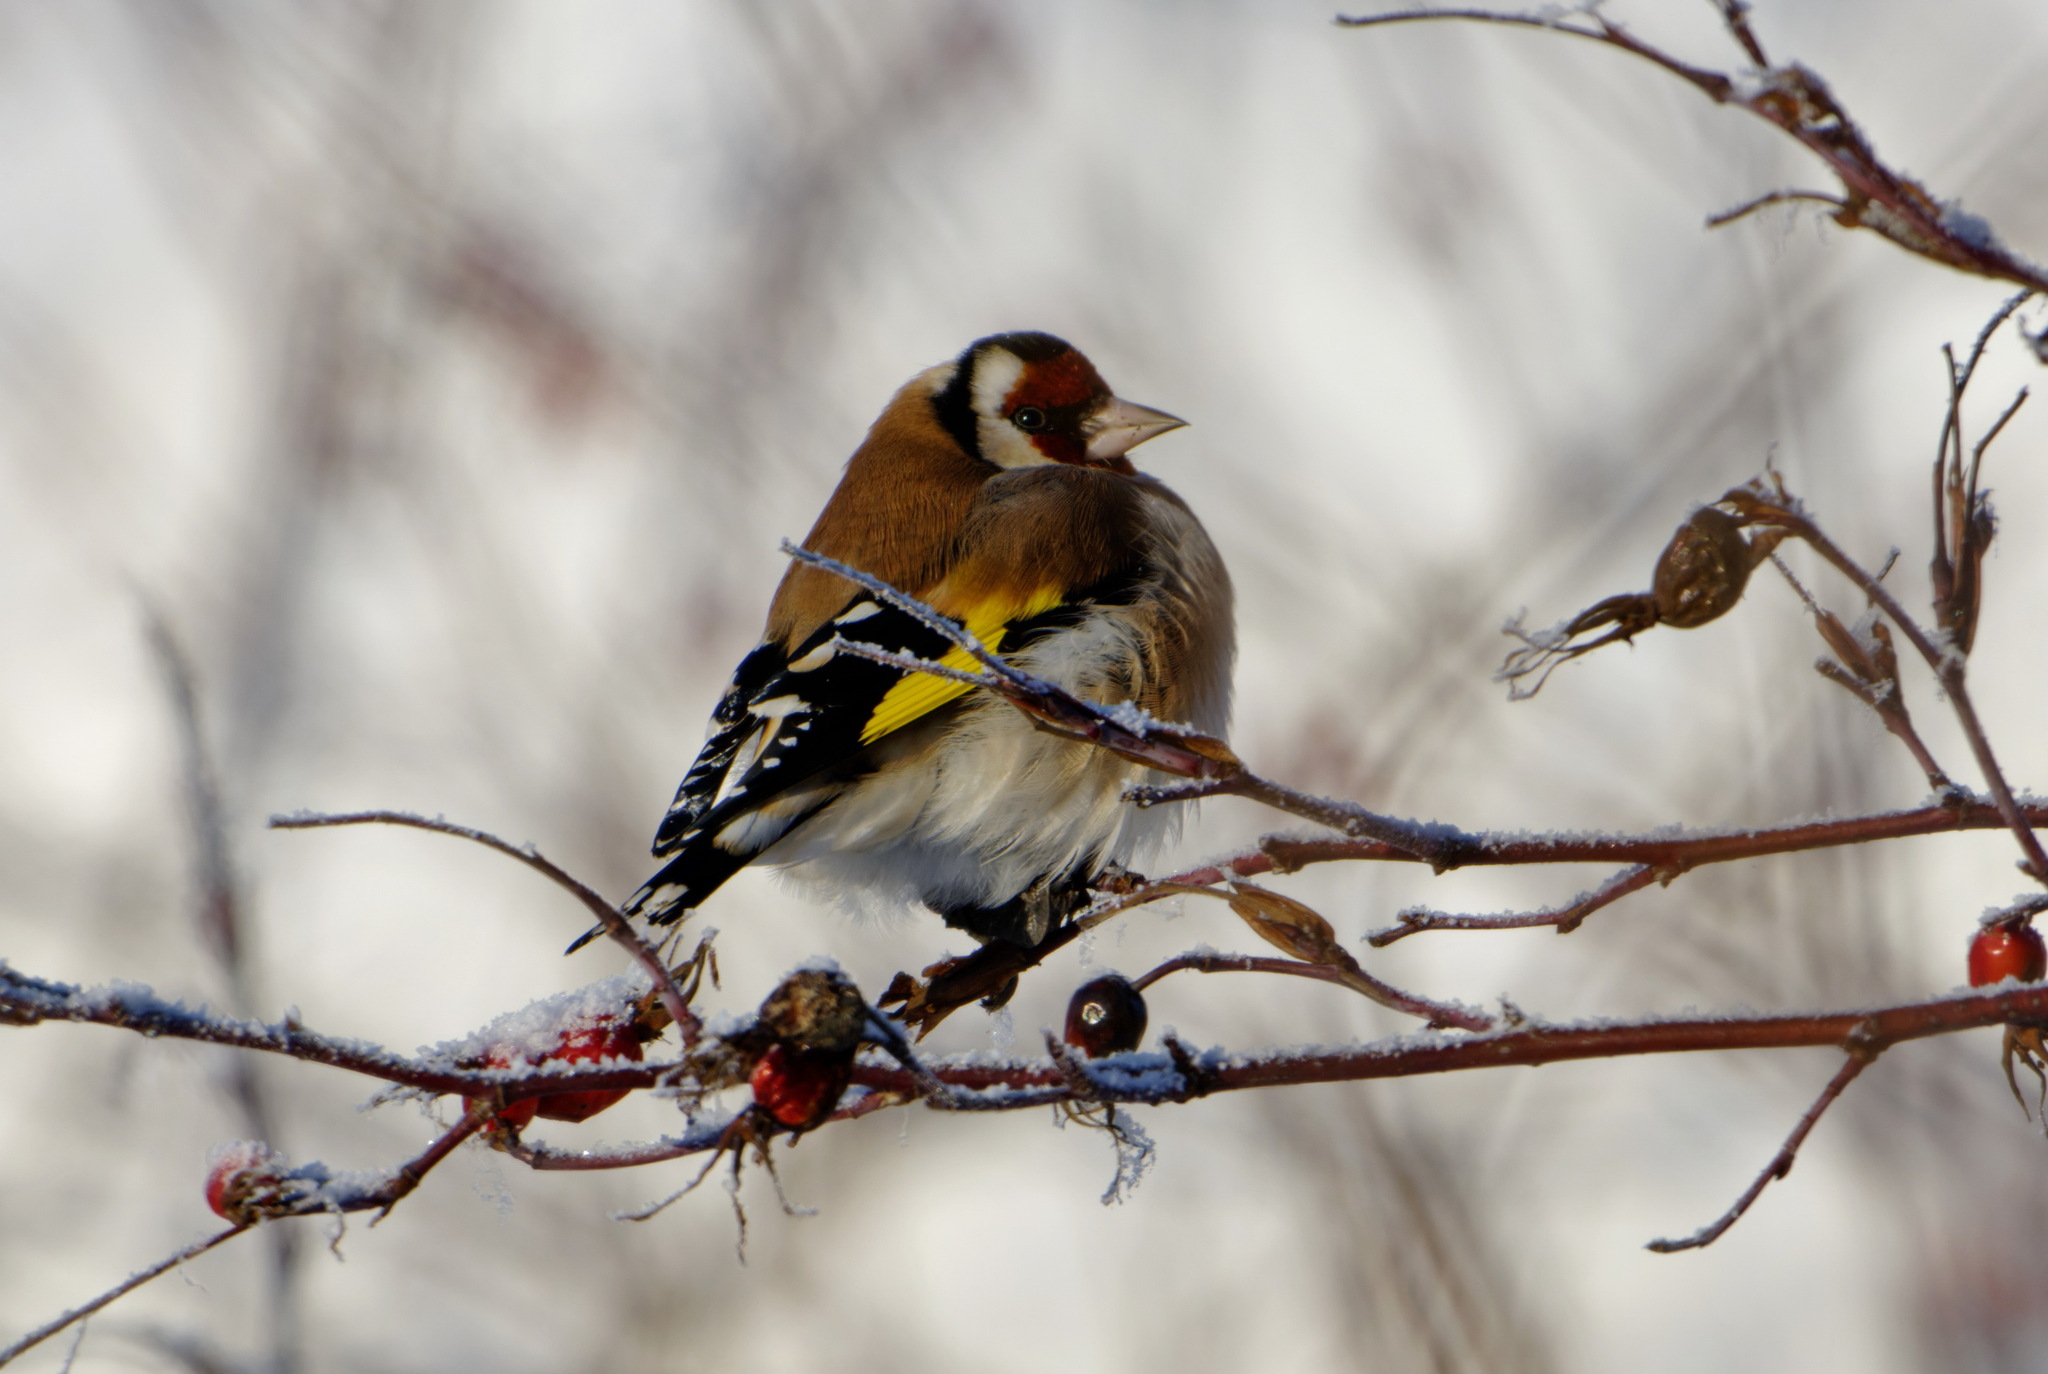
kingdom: Animalia
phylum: Chordata
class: Aves
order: Passeriformes
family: Fringillidae
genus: Carduelis
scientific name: Carduelis carduelis
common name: European goldfinch
